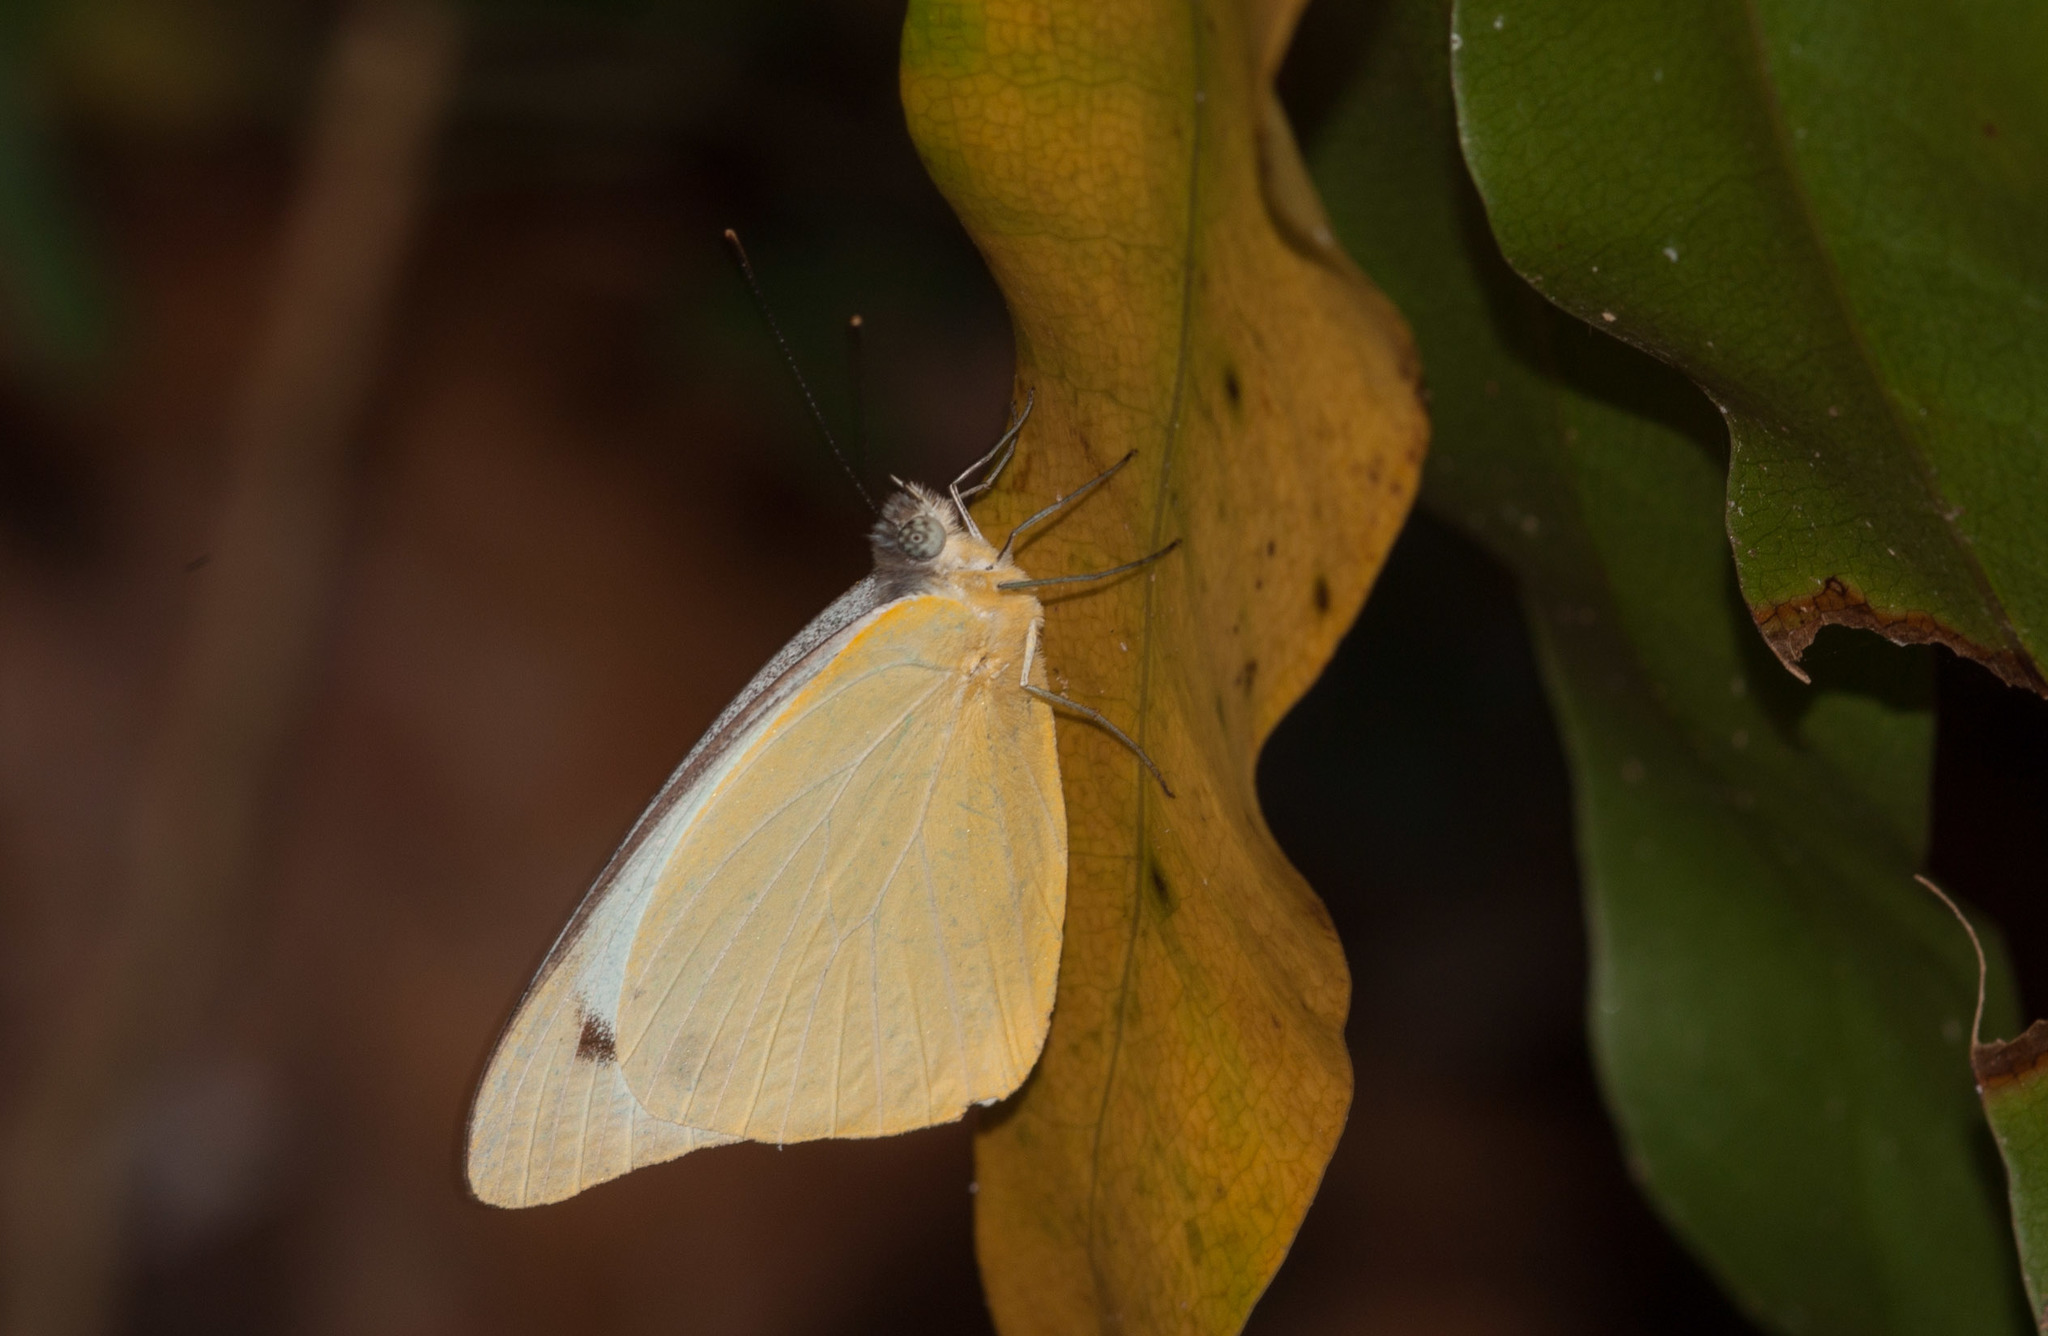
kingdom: Animalia
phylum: Arthropoda
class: Insecta
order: Lepidoptera
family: Pieridae
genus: Appias
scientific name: Appias paulina
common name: Ceylon lesser albatross
